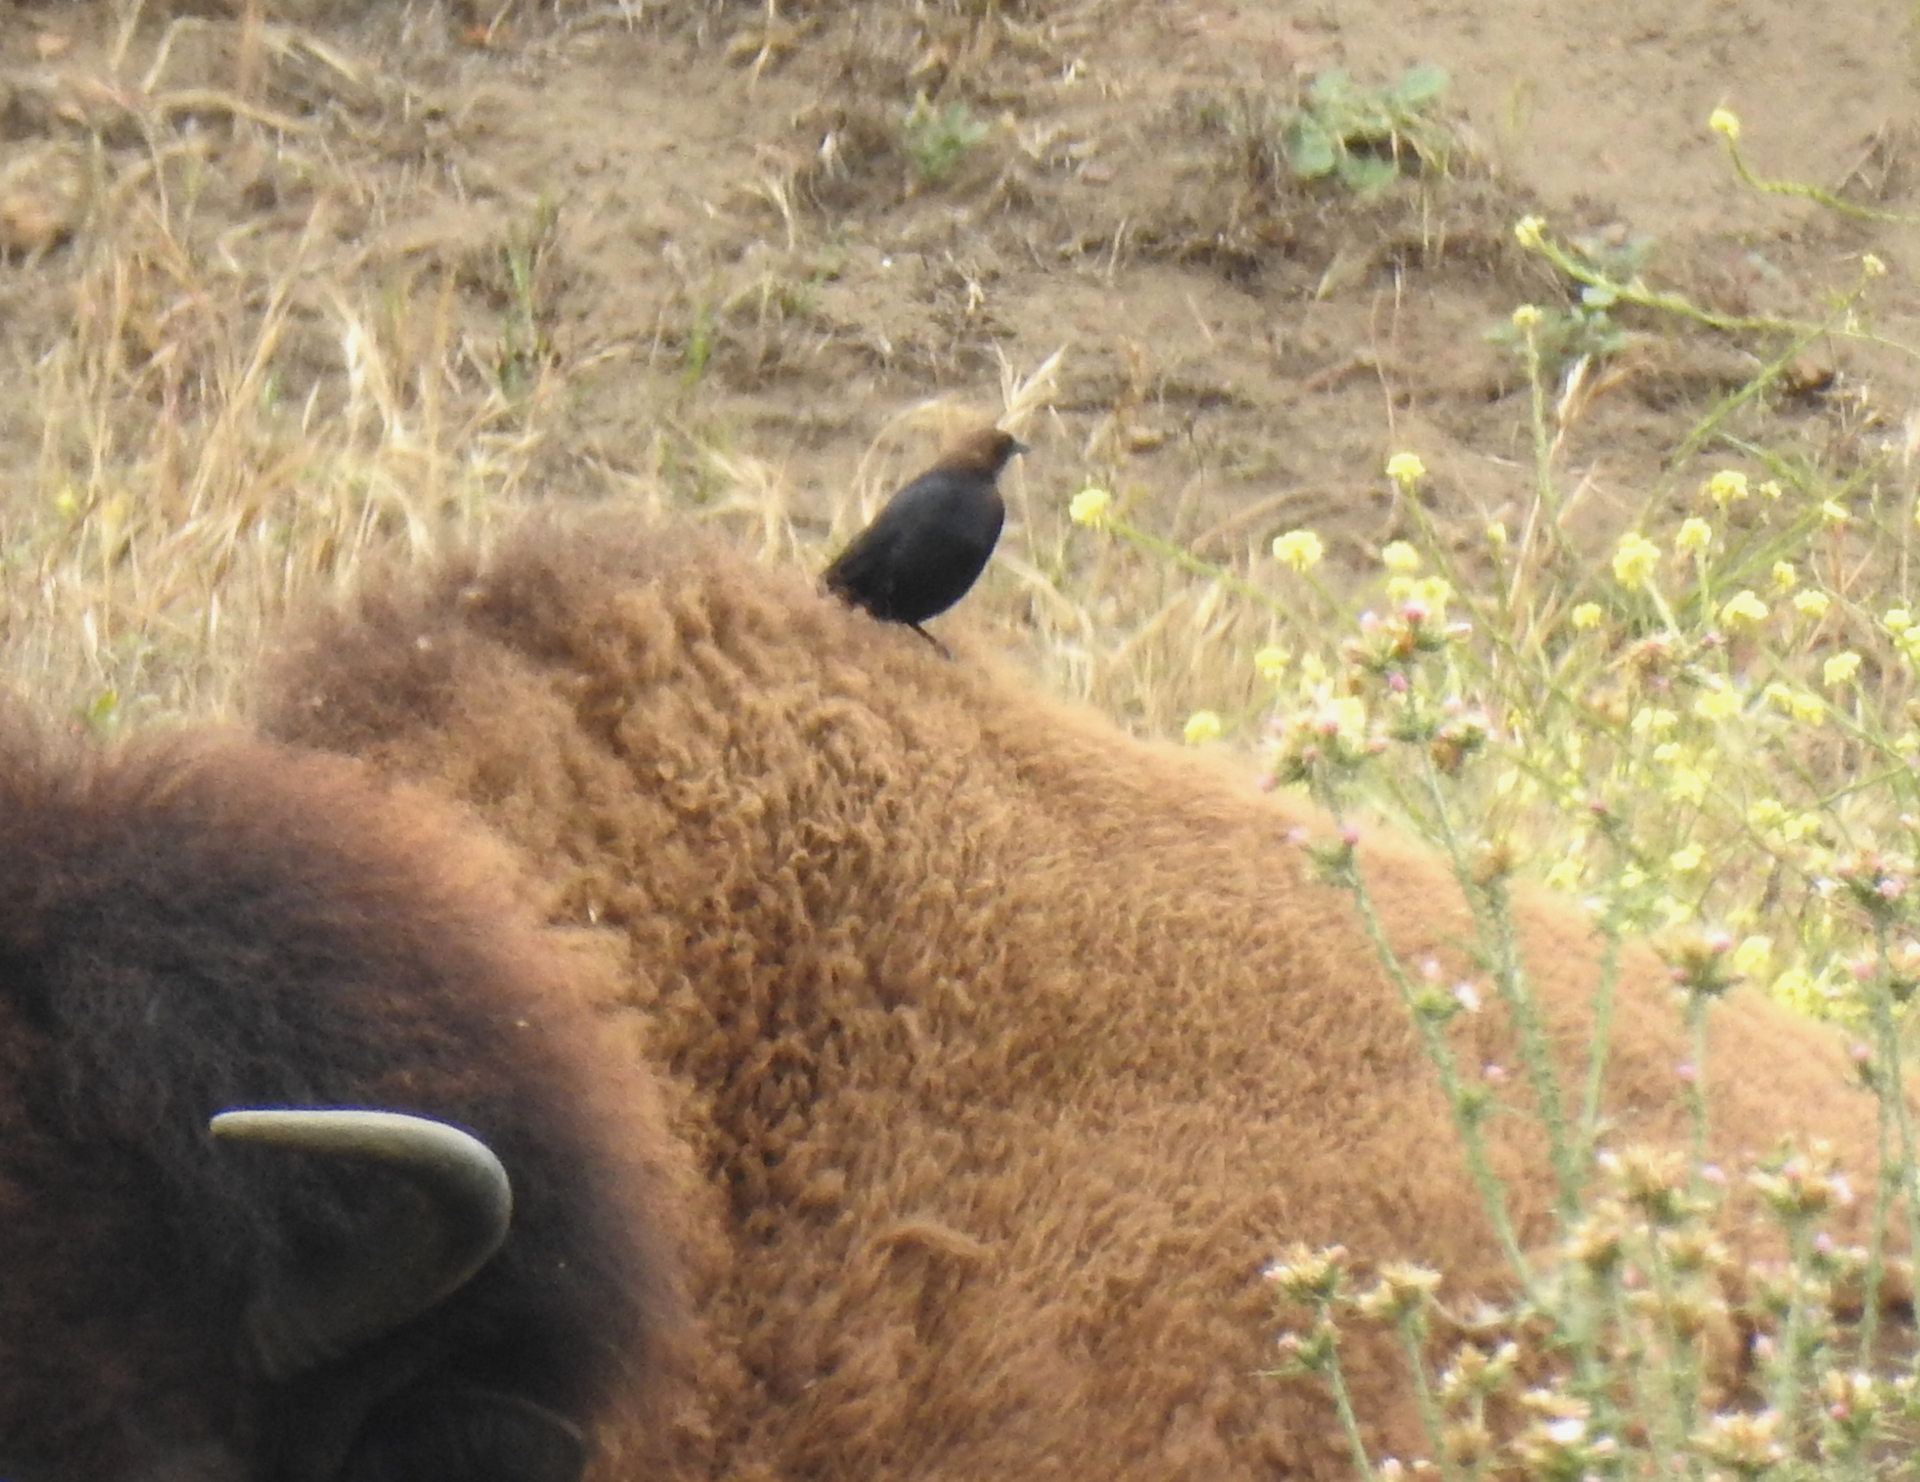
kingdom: Animalia
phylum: Chordata
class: Aves
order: Passeriformes
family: Icteridae
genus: Molothrus
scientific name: Molothrus ater
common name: Brown-headed cowbird
